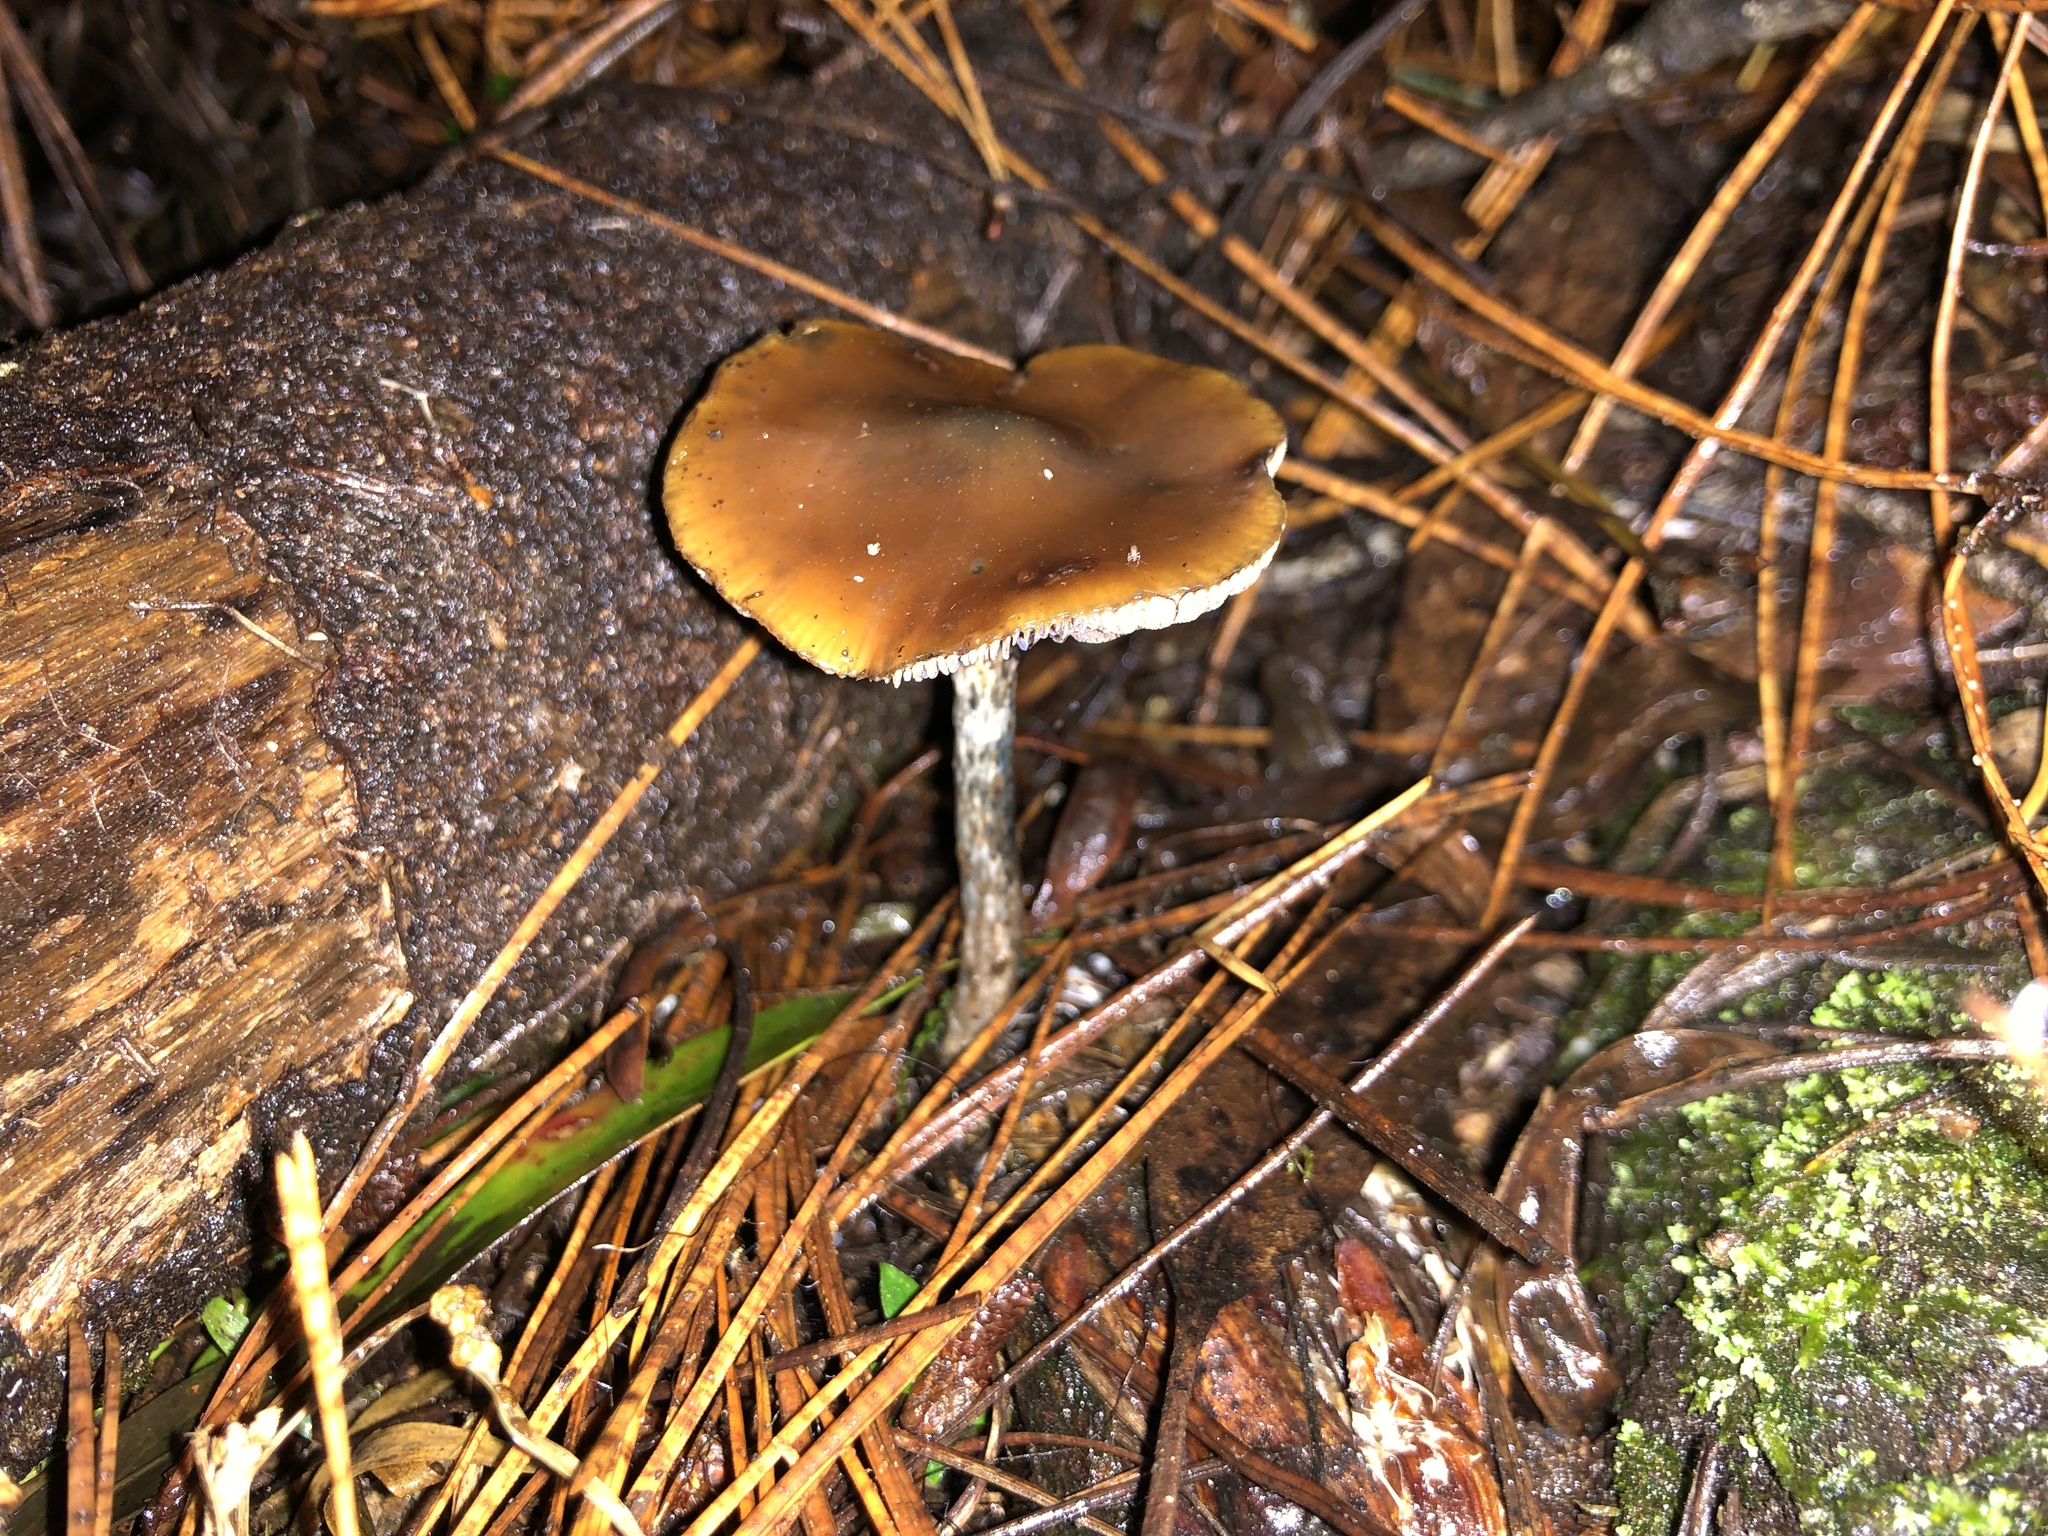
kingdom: Fungi
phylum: Basidiomycota
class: Agaricomycetes
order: Agaricales
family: Hymenogastraceae
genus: Psilocybe
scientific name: Psilocybe subaeruginosa
